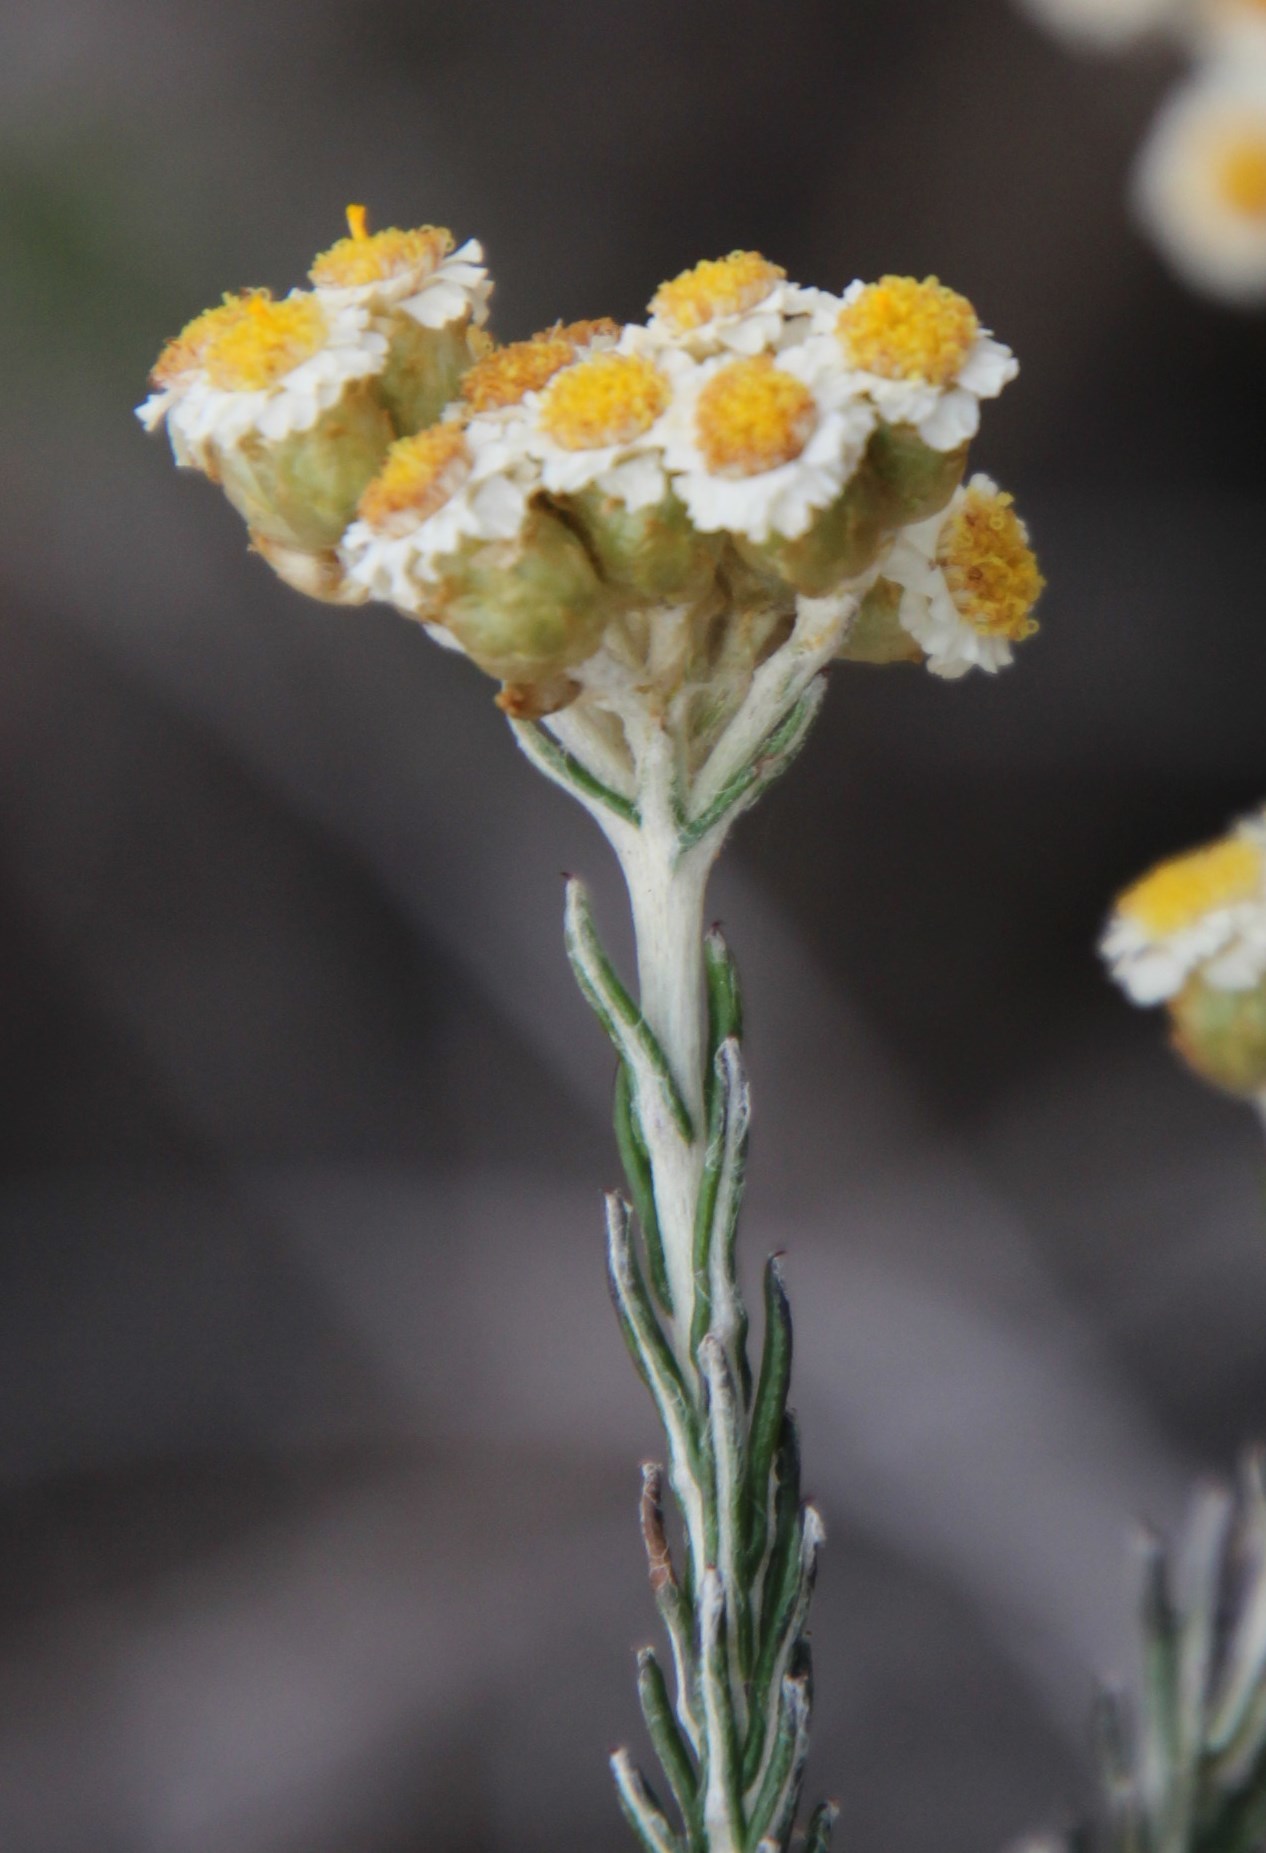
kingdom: Plantae
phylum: Tracheophyta
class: Magnoliopsida
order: Asterales
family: Asteraceae
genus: Helichrysum
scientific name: Helichrysum teretifolium
